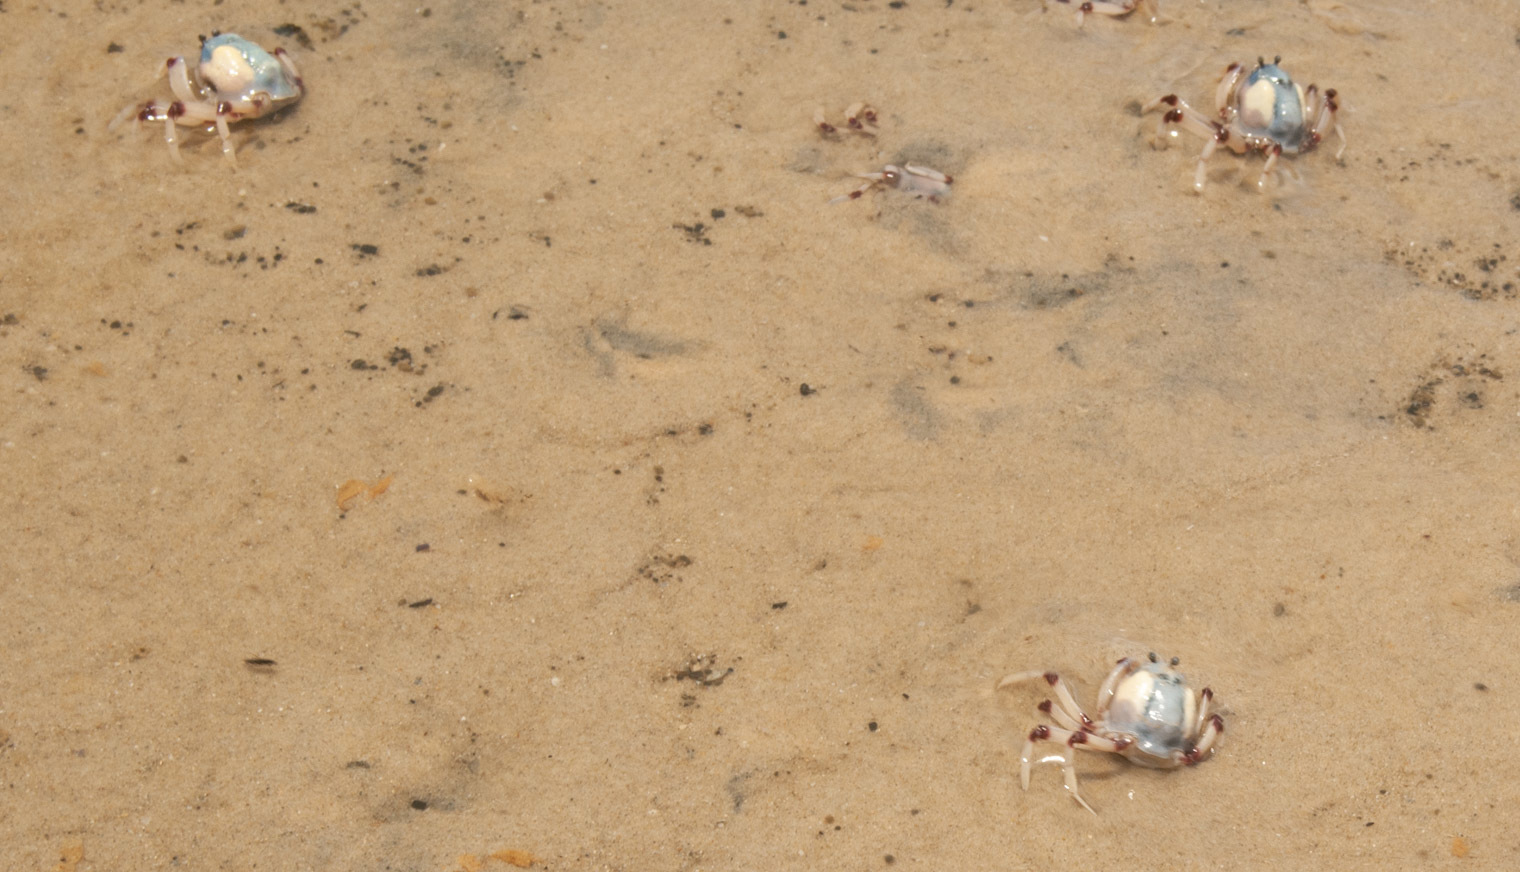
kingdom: Animalia
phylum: Arthropoda
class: Malacostraca
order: Decapoda
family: Mictyridae
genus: Mictyris
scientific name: Mictyris longicarpus
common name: Light-blue soldier crab
